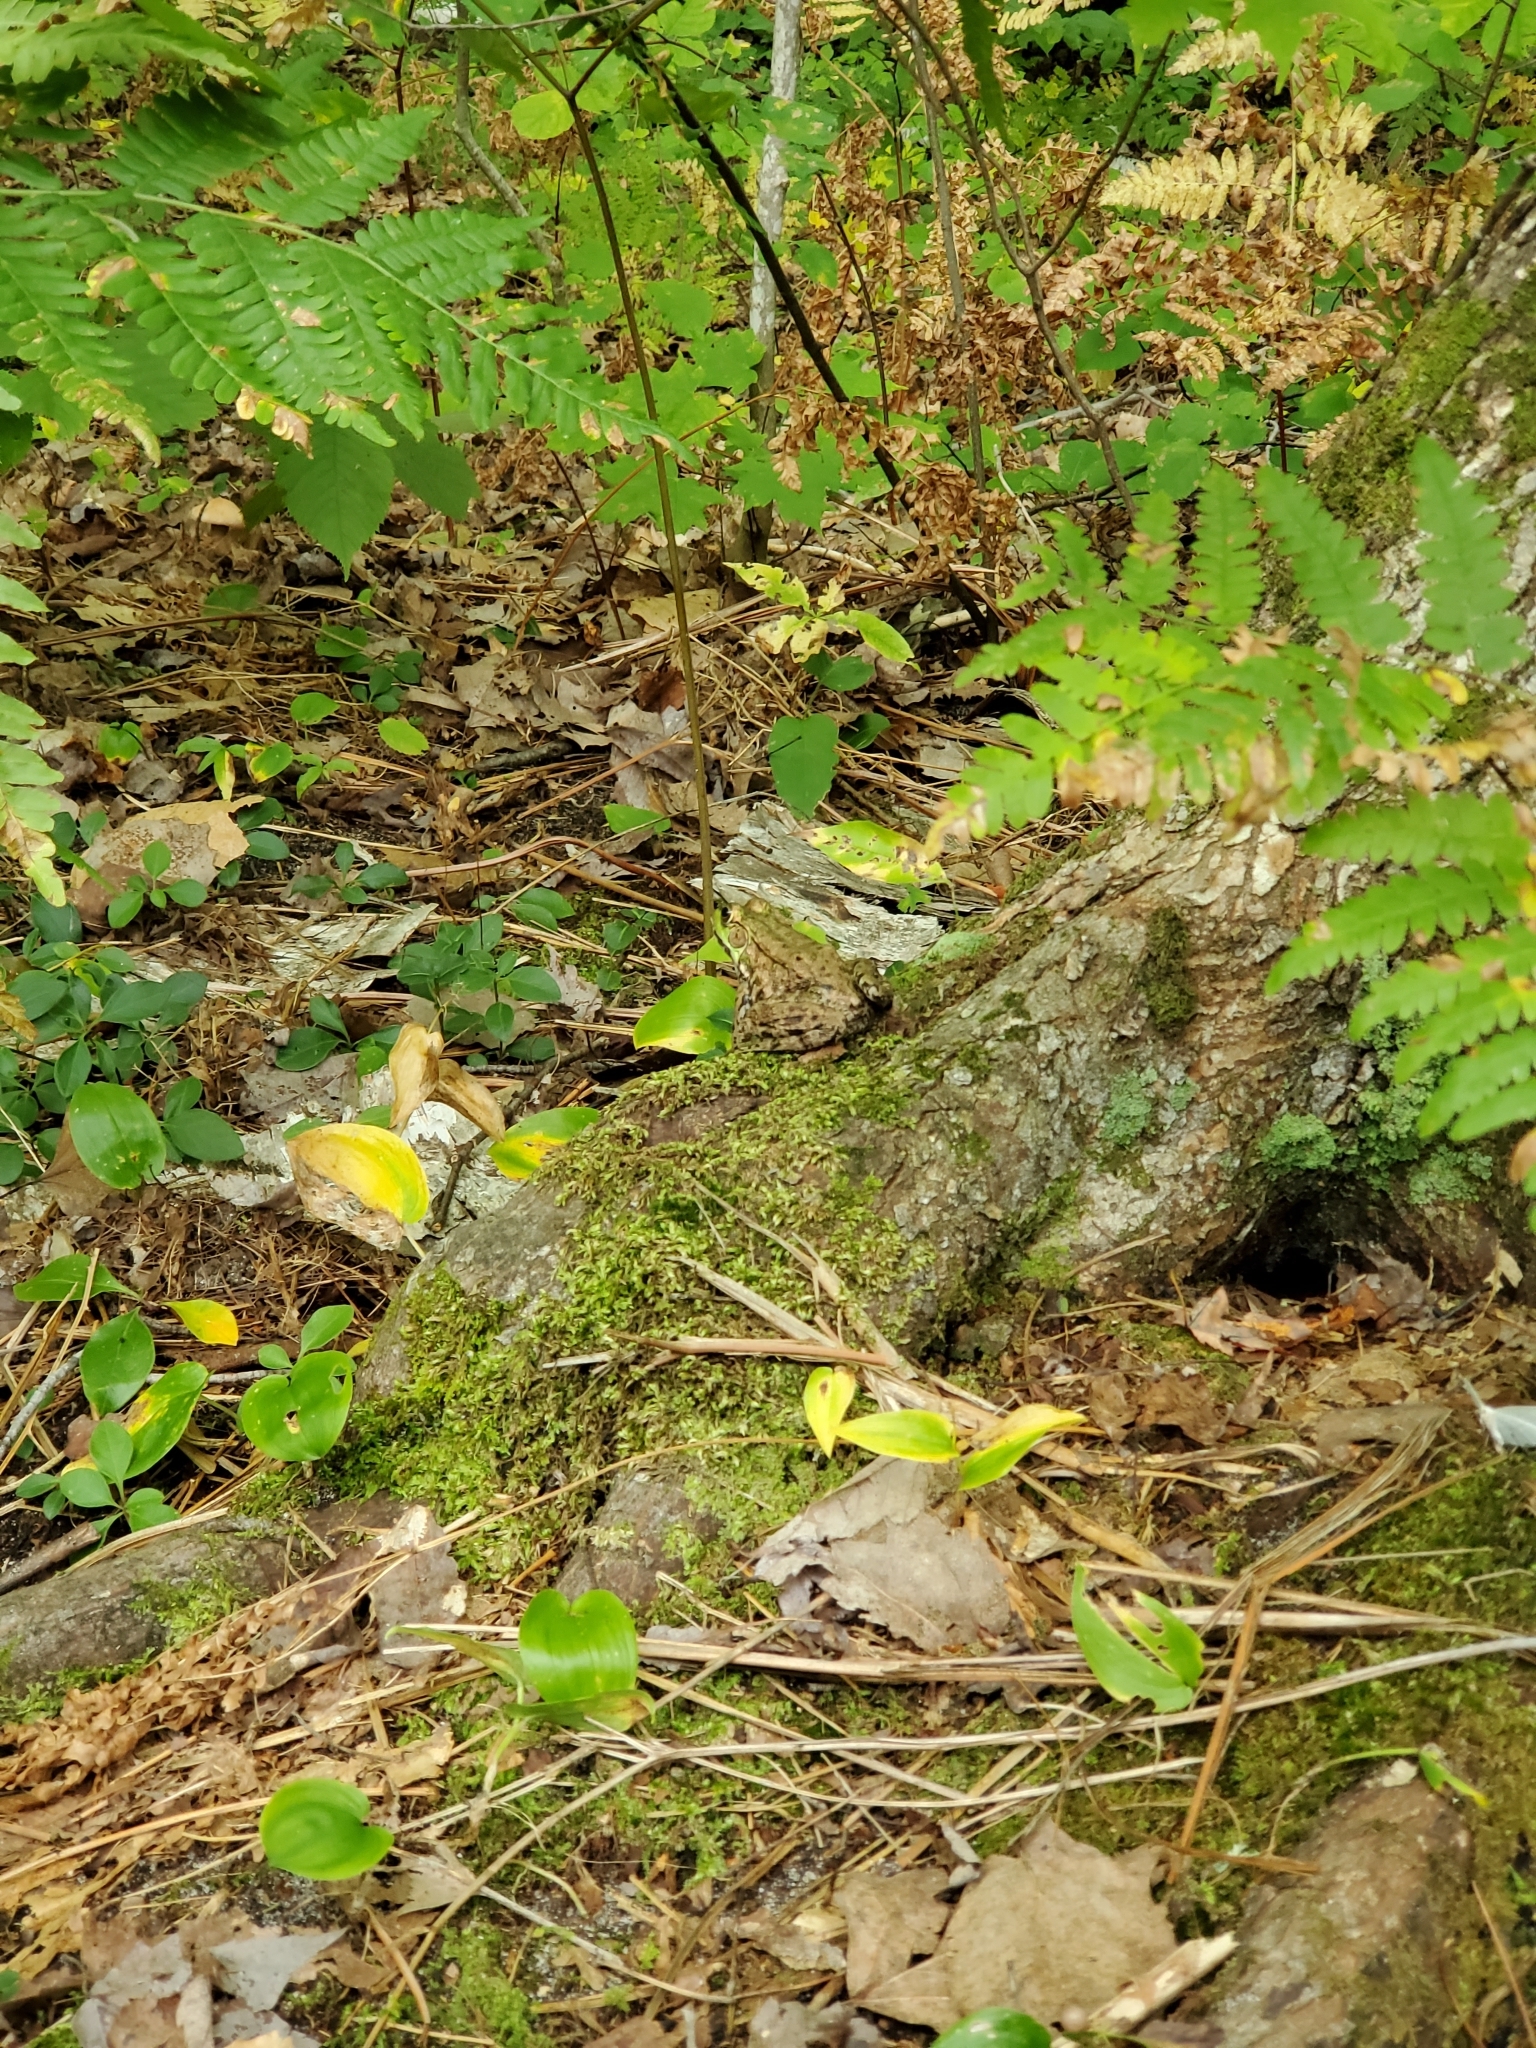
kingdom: Animalia
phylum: Chordata
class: Amphibia
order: Anura
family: Ranidae
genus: Lithobates
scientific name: Lithobates clamitans
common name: Green frog
